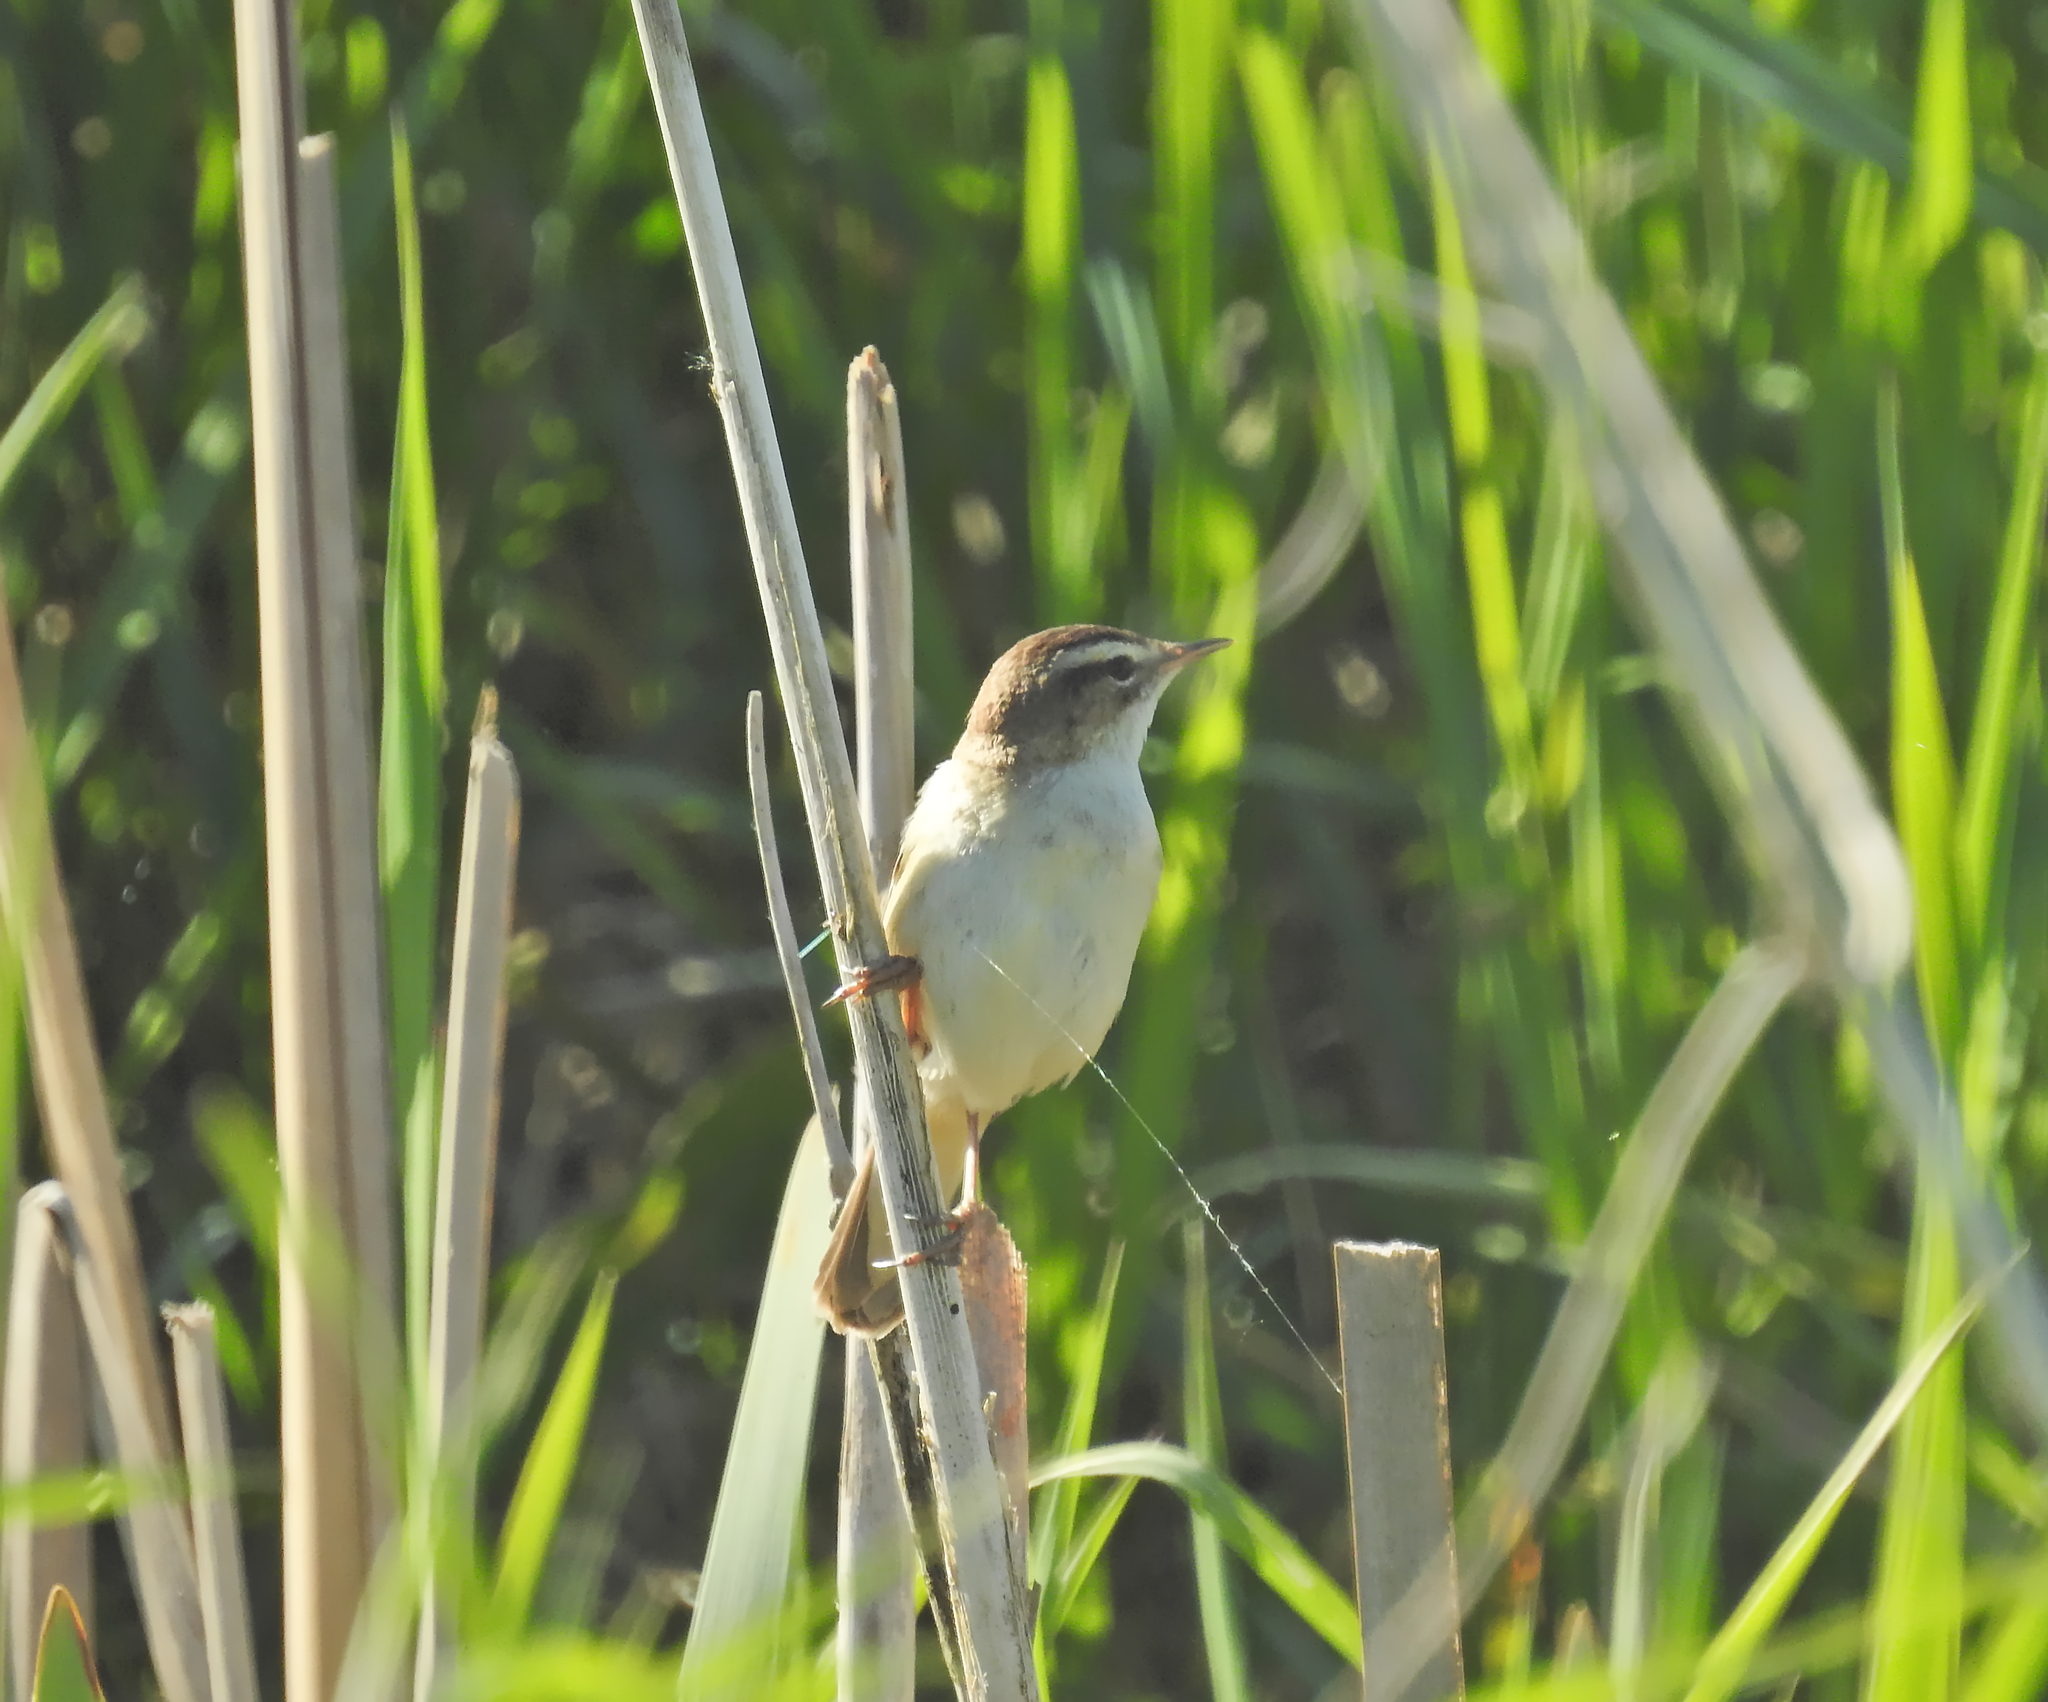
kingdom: Animalia
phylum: Chordata
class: Aves
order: Passeriformes
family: Acrocephalidae
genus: Acrocephalus
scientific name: Acrocephalus schoenobaenus
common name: Sedge warbler
